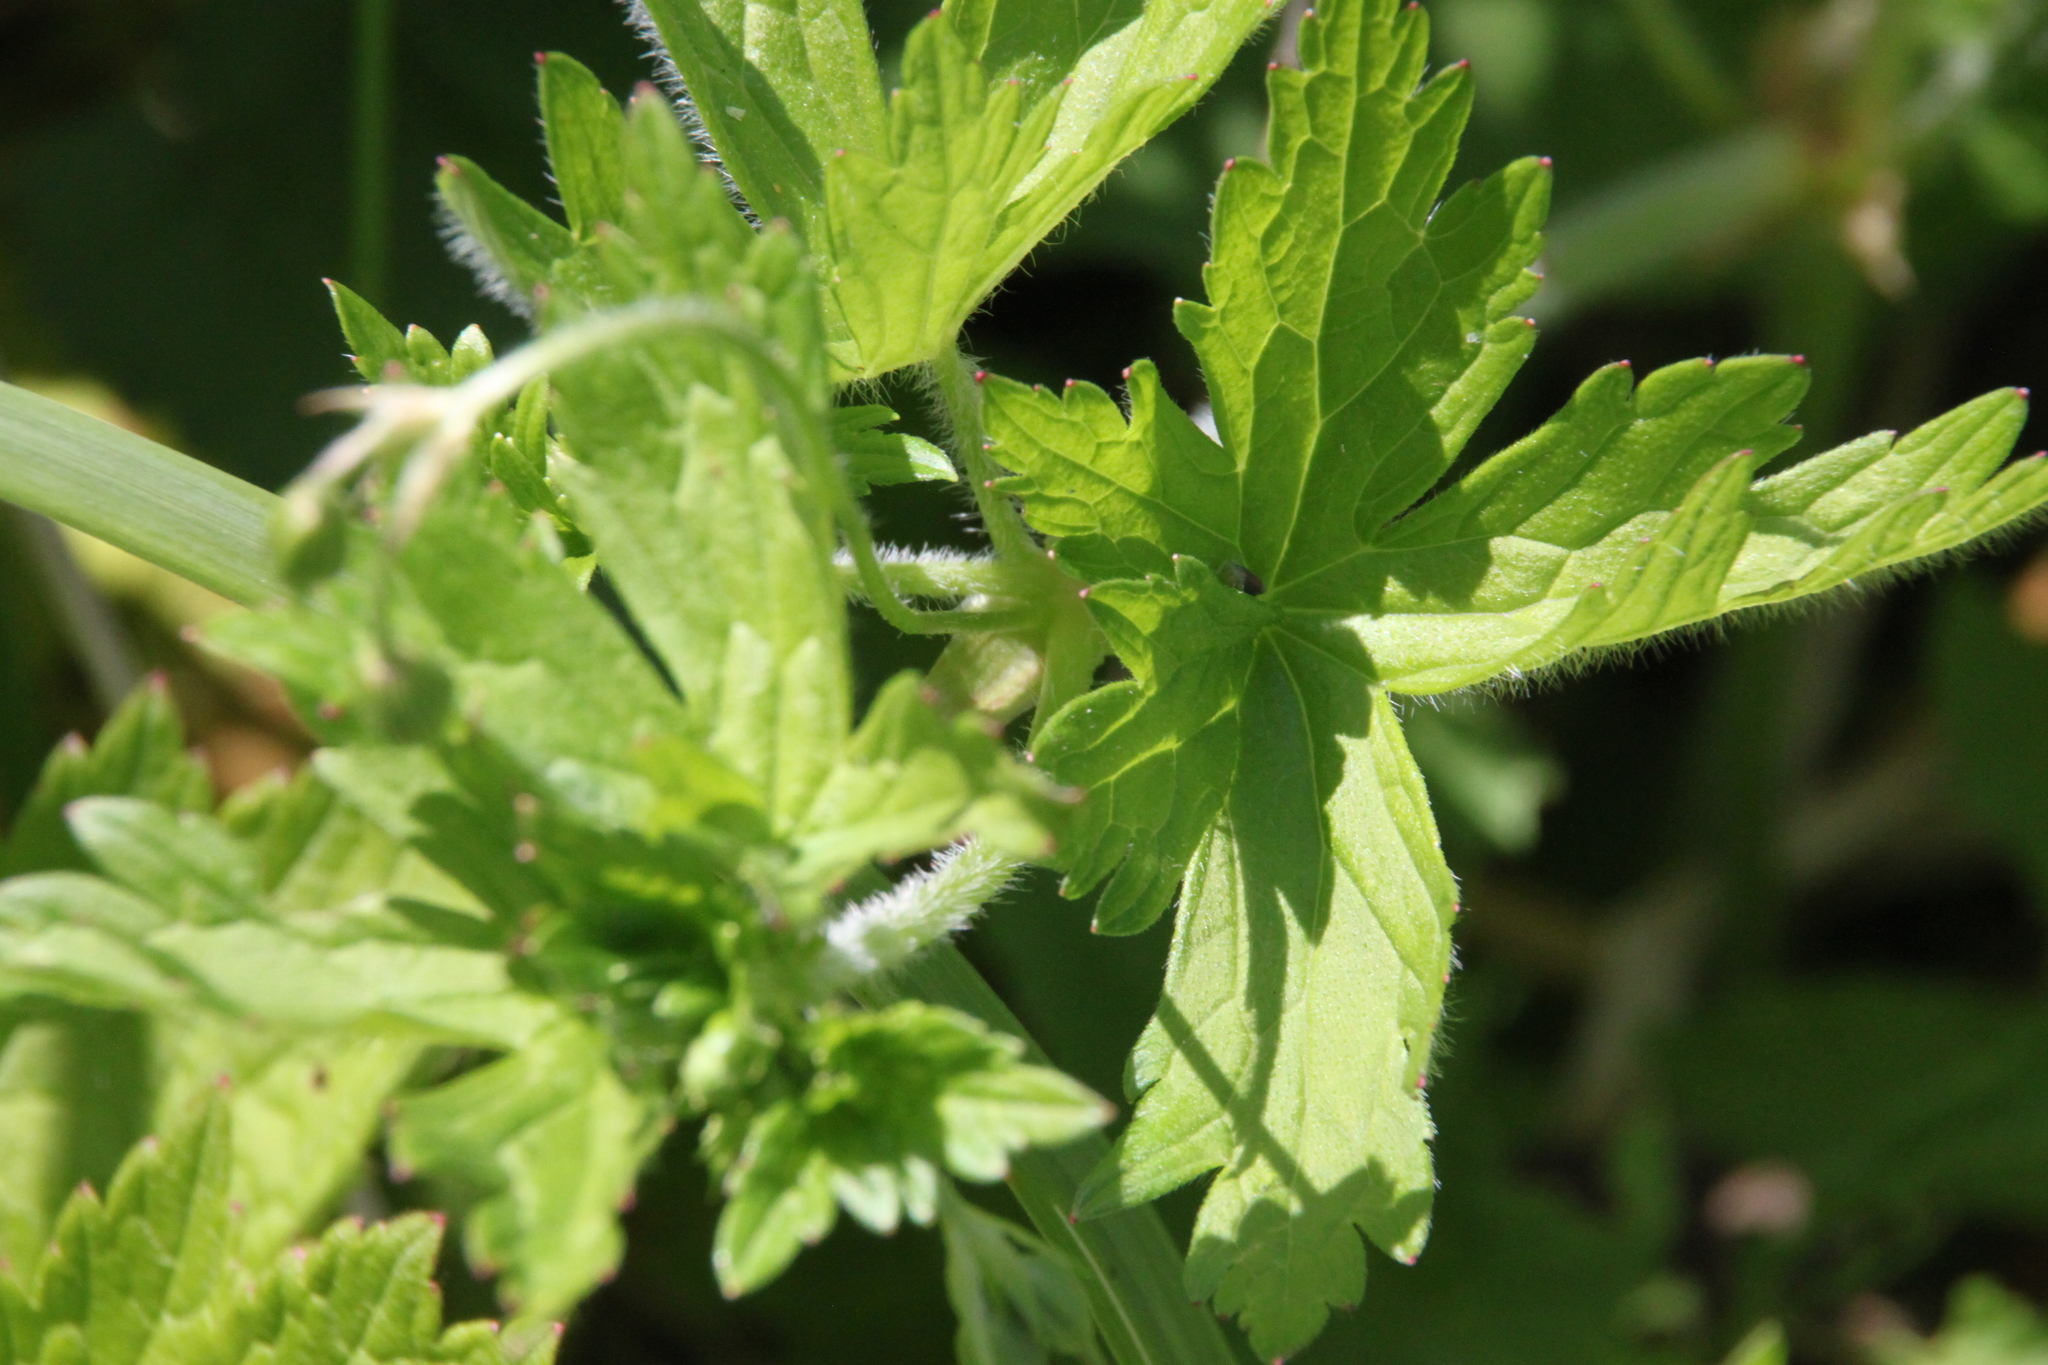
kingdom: Plantae
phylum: Tracheophyta
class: Magnoliopsida
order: Geraniales
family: Geraniaceae
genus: Geranium
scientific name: Geranium palustre
